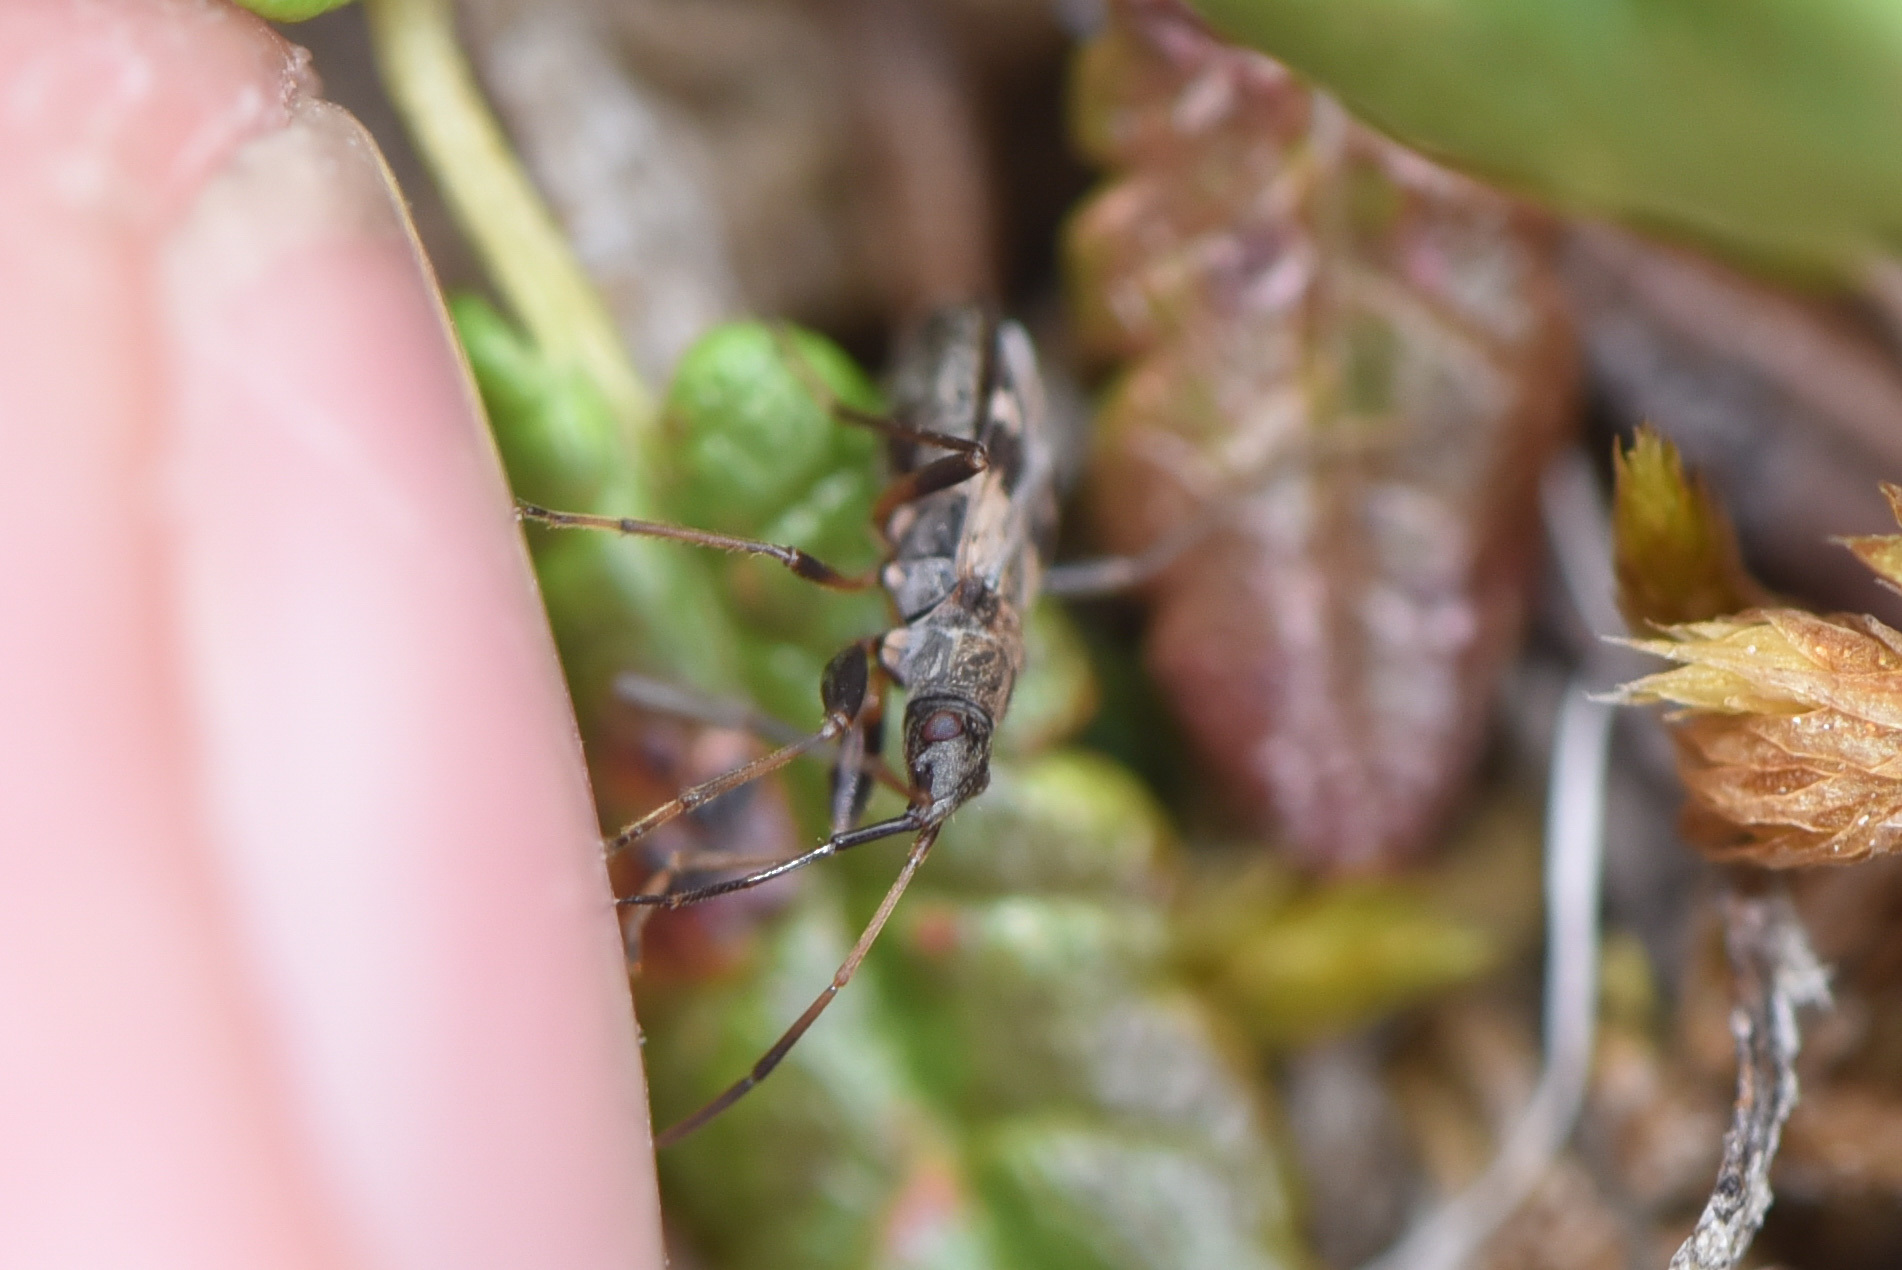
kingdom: Animalia
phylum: Arthropoda
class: Insecta
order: Hemiptera
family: Rhyparochromidae
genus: Ligyrocoris
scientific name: Ligyrocoris sylvestris
